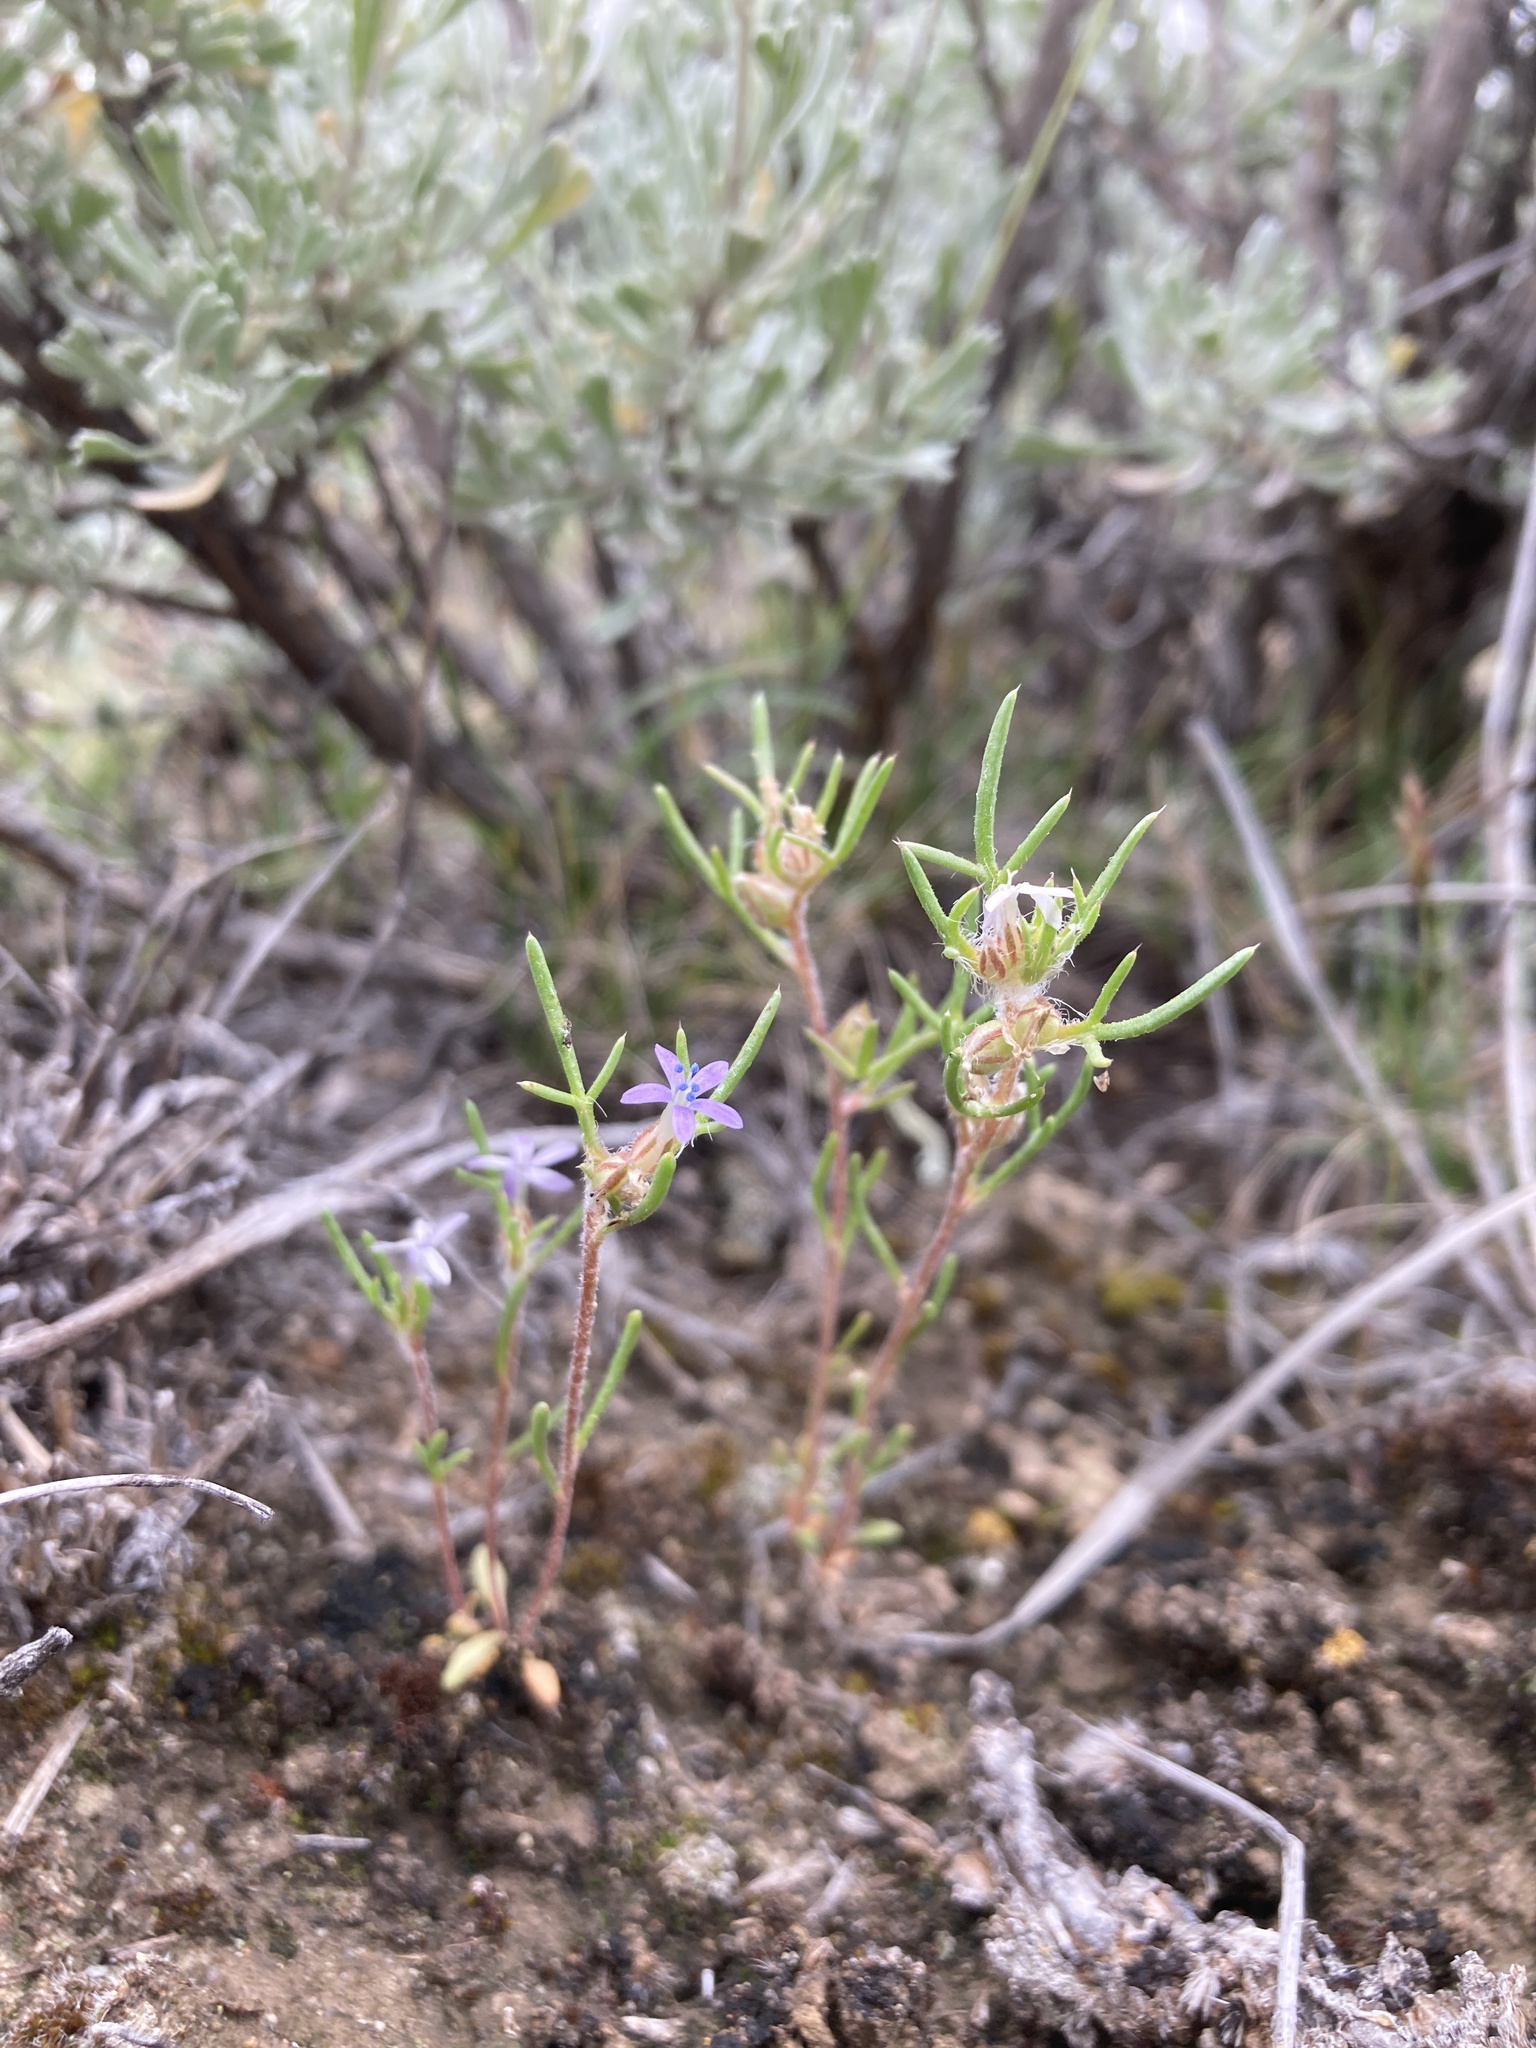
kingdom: Plantae
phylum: Tracheophyta
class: Magnoliopsida
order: Ericales
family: Polemoniaceae
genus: Ipomopsis
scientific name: Ipomopsis pumila
